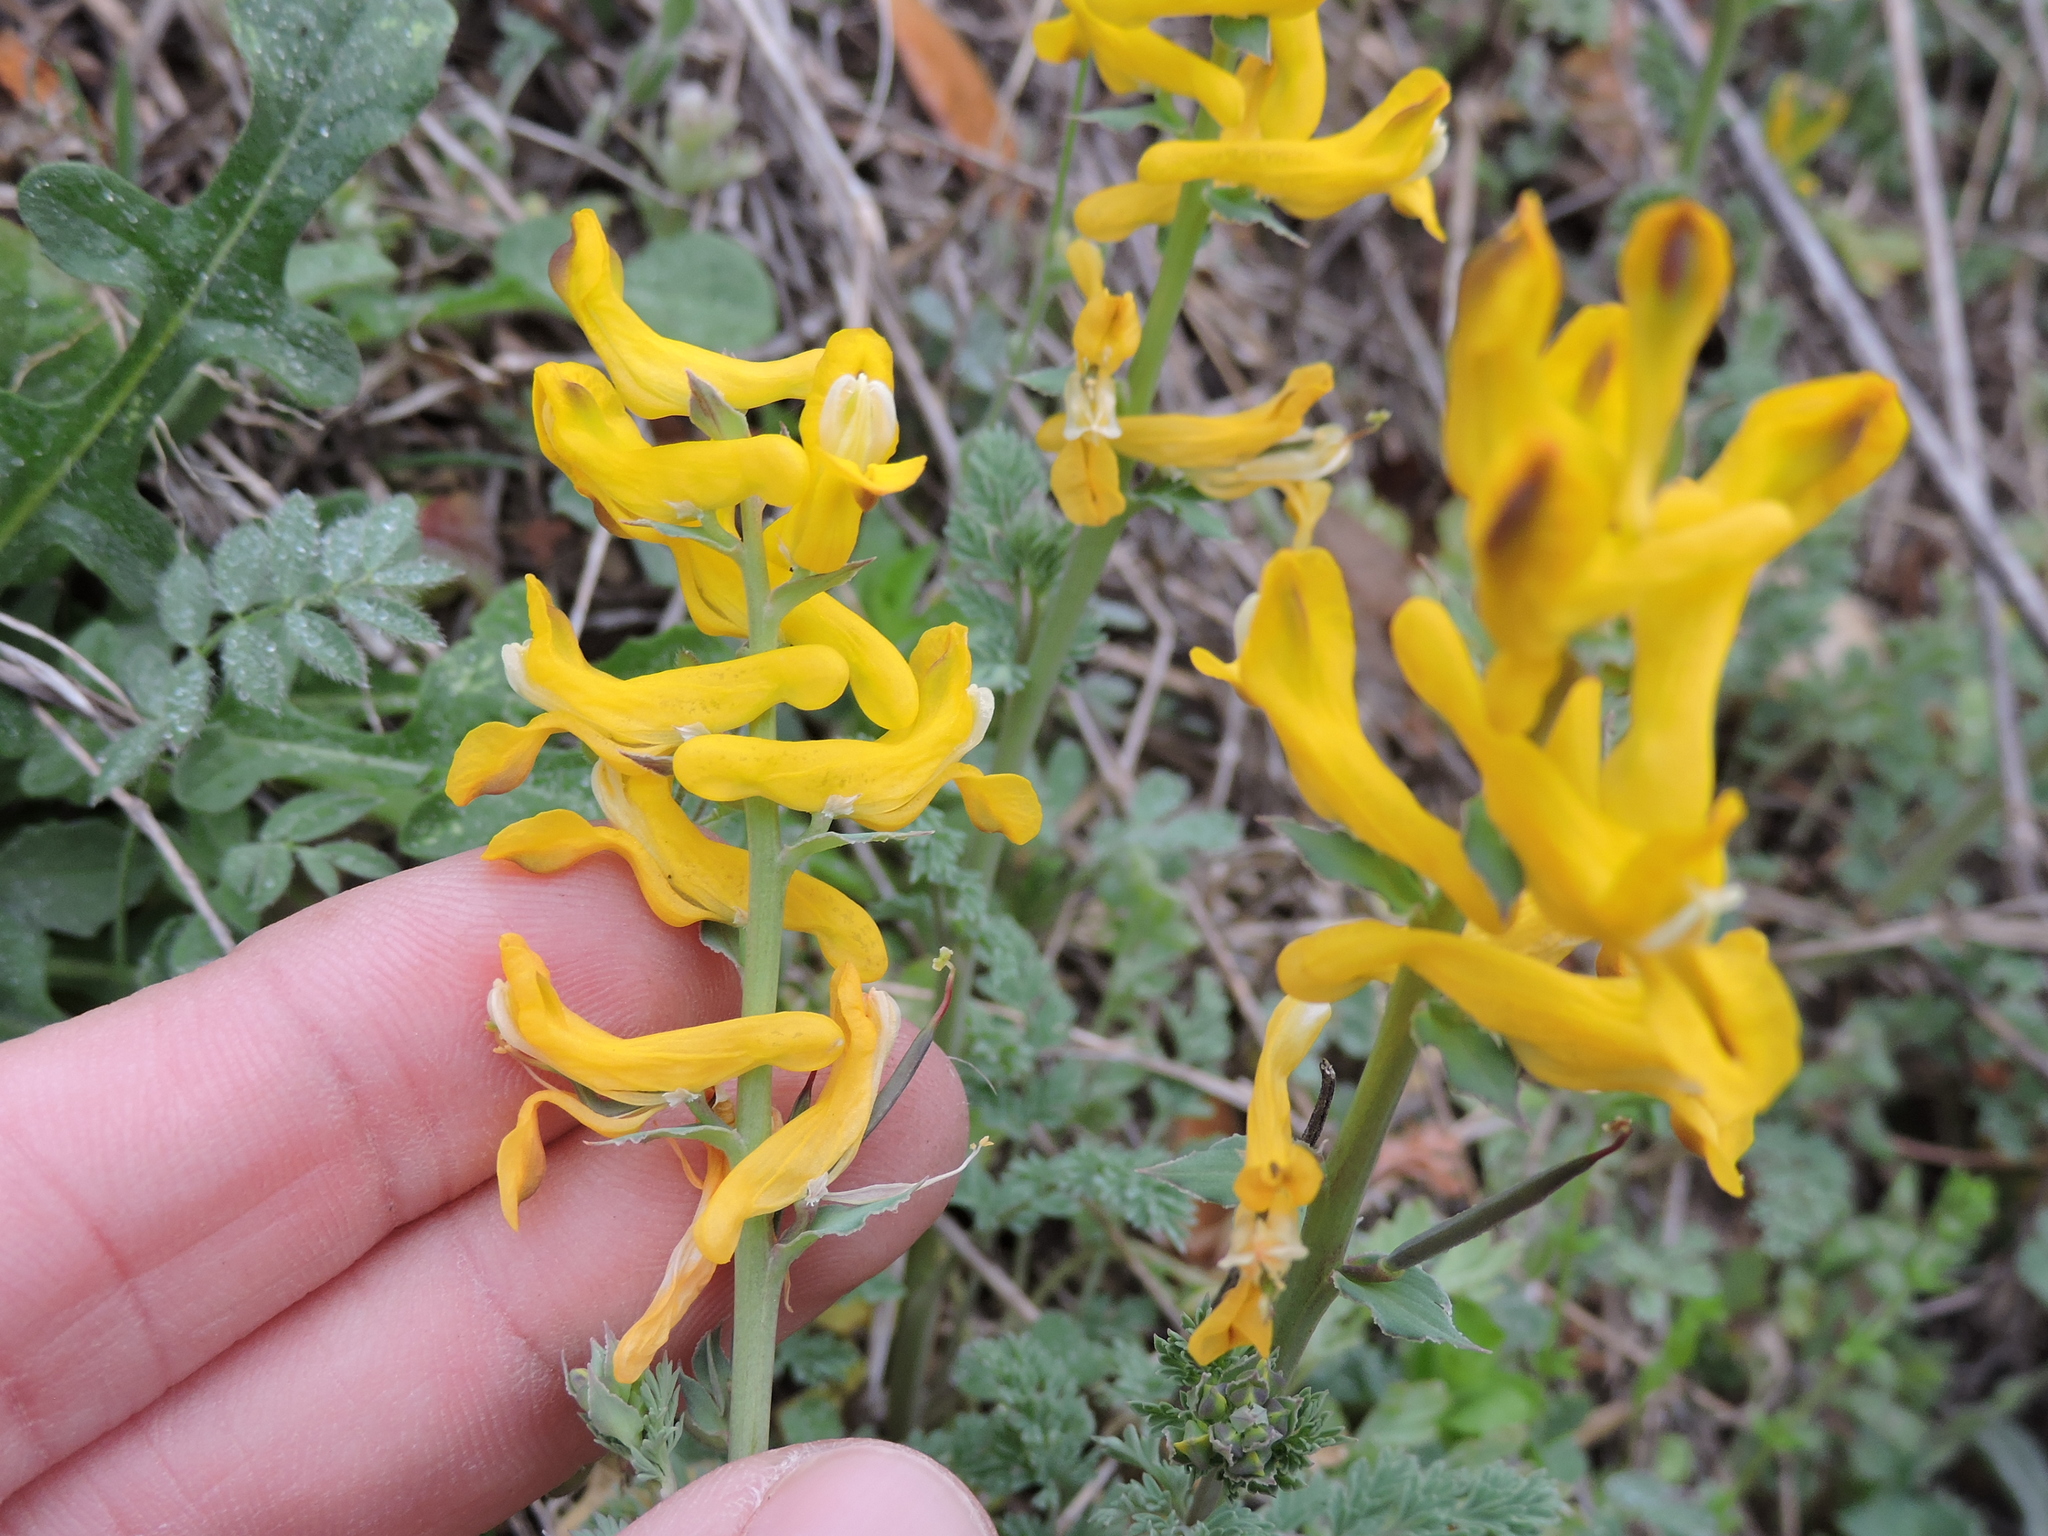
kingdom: Plantae
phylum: Tracheophyta
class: Magnoliopsida
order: Ranunculales
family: Papaveraceae
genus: Corydalis
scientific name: Corydalis curvisiliqua
